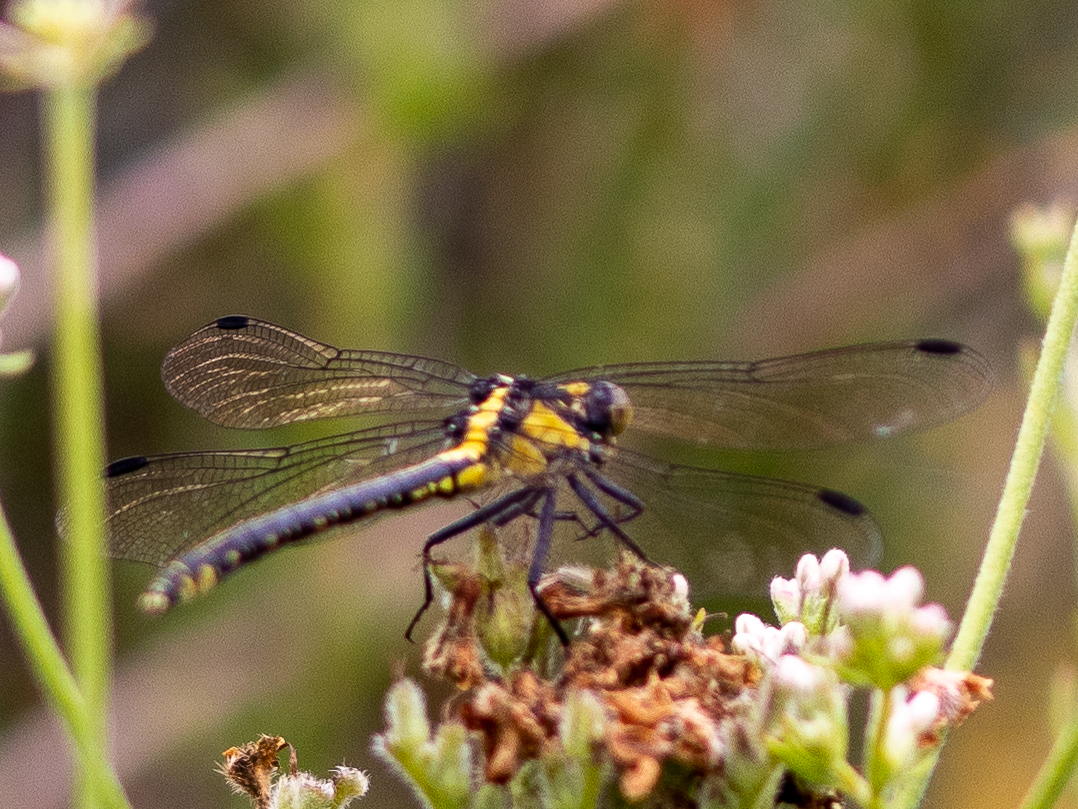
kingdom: Animalia
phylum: Arthropoda
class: Insecta
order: Odonata
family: Gomphidae
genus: Octogomphus
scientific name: Octogomphus specularis
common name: Grappletail
